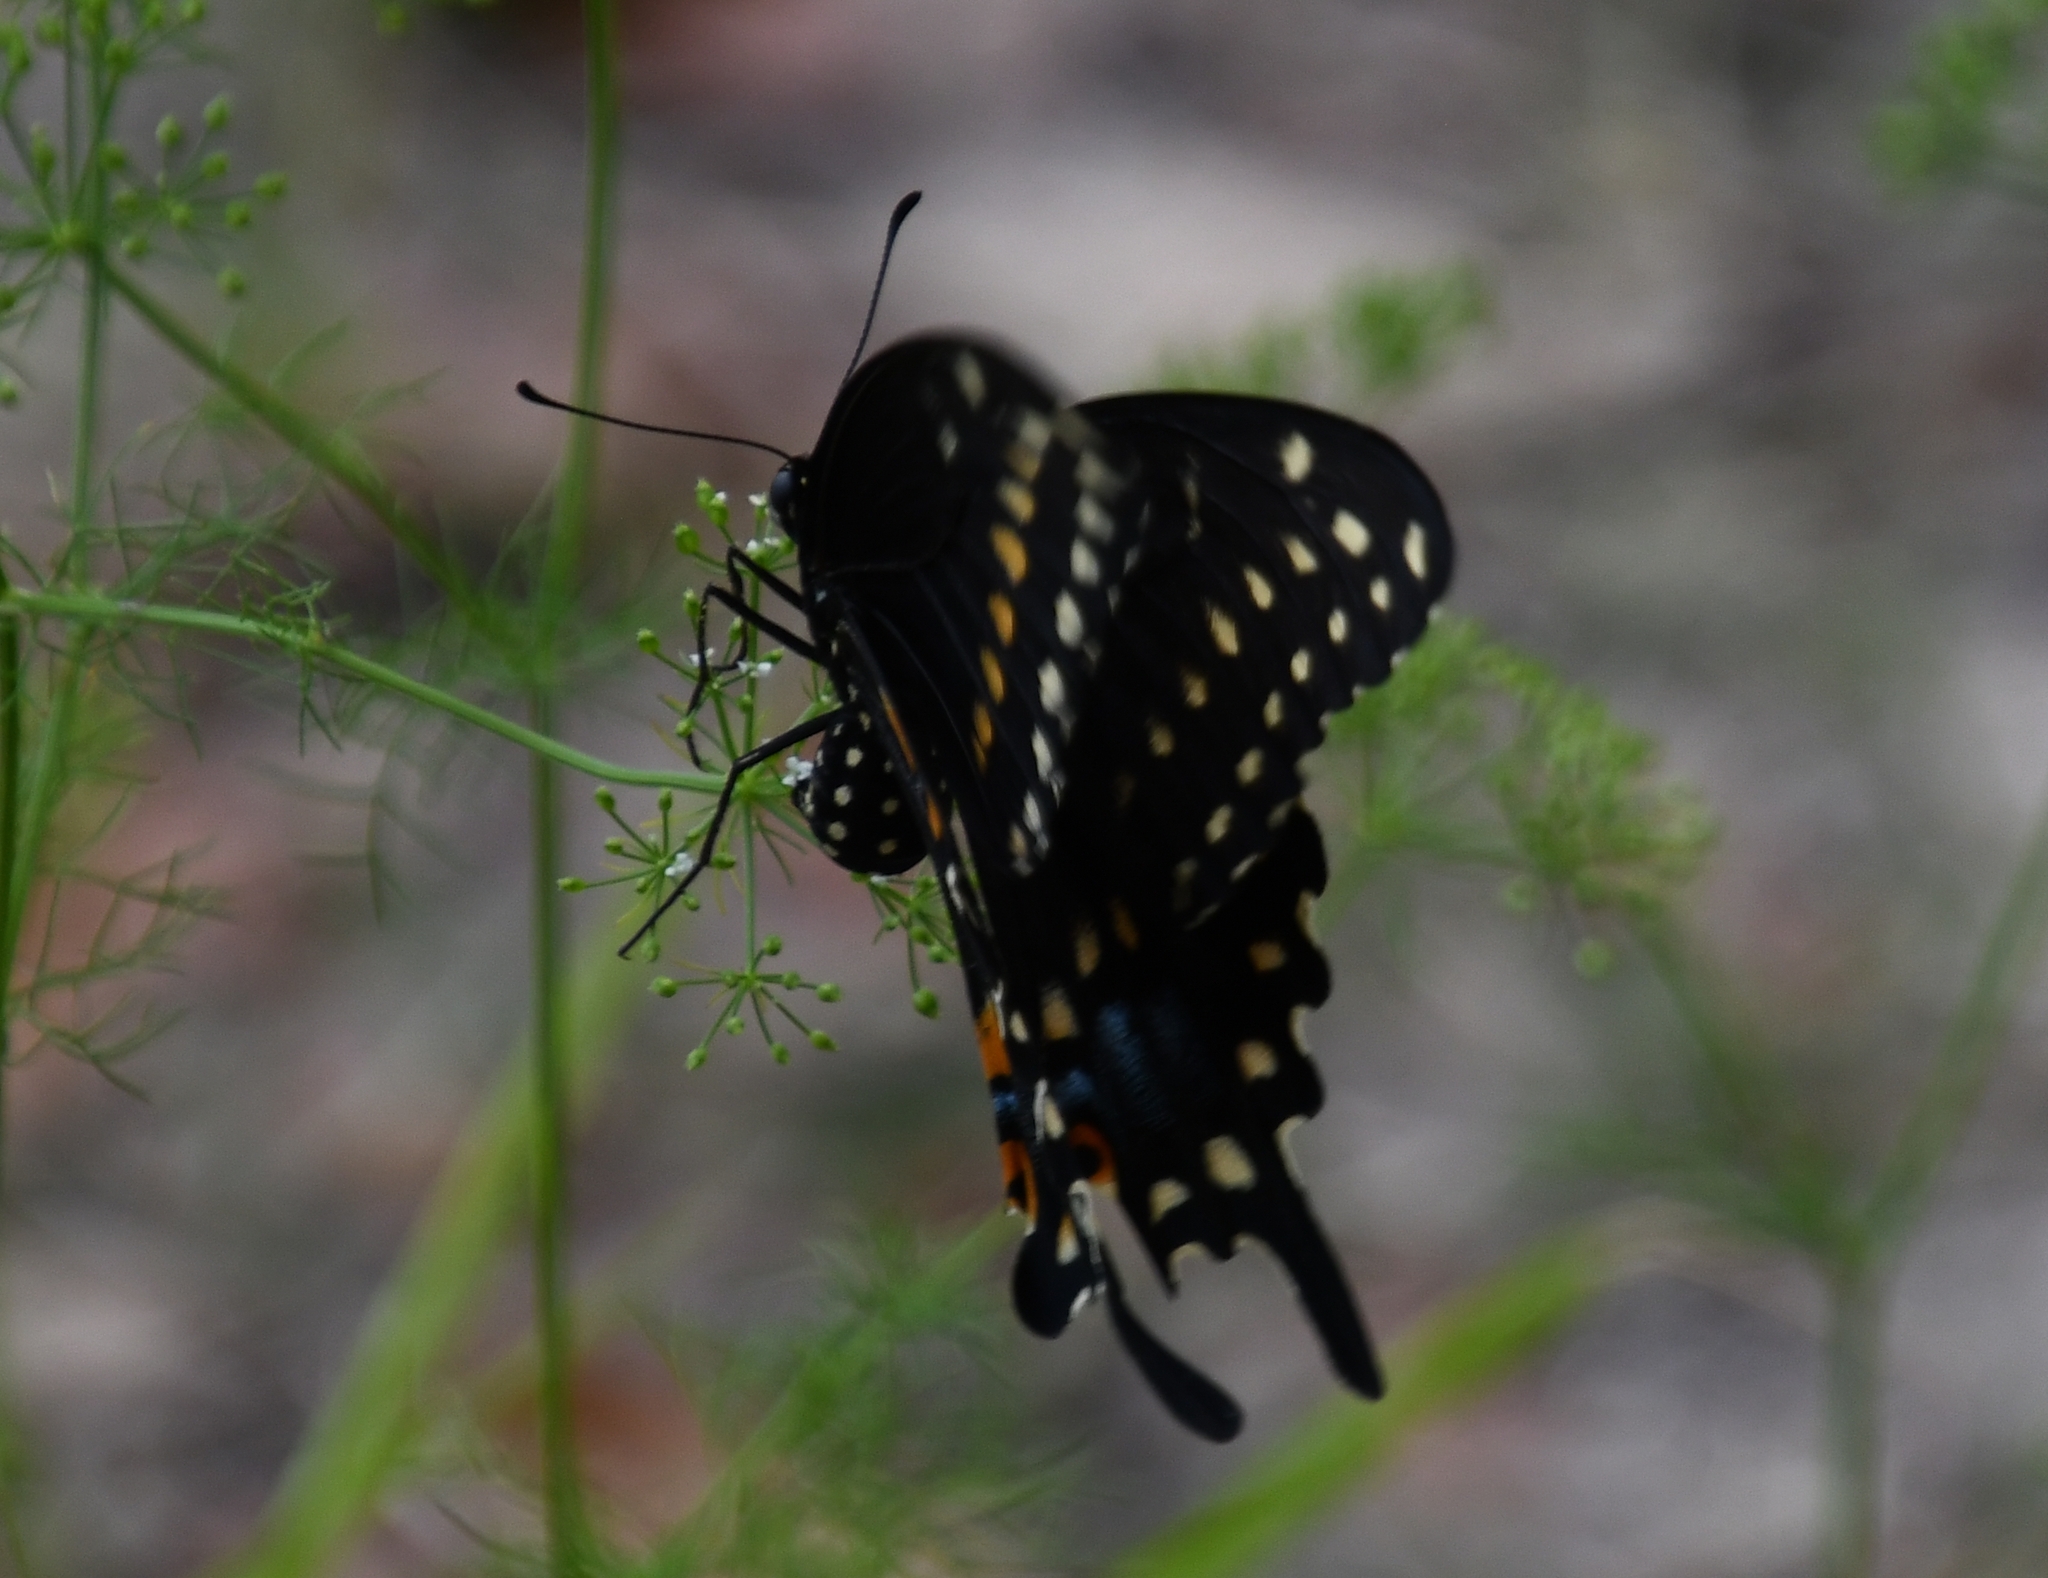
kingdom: Animalia
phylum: Arthropoda
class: Insecta
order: Lepidoptera
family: Papilionidae
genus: Papilio
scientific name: Papilio polyxenes
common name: Black swallowtail
